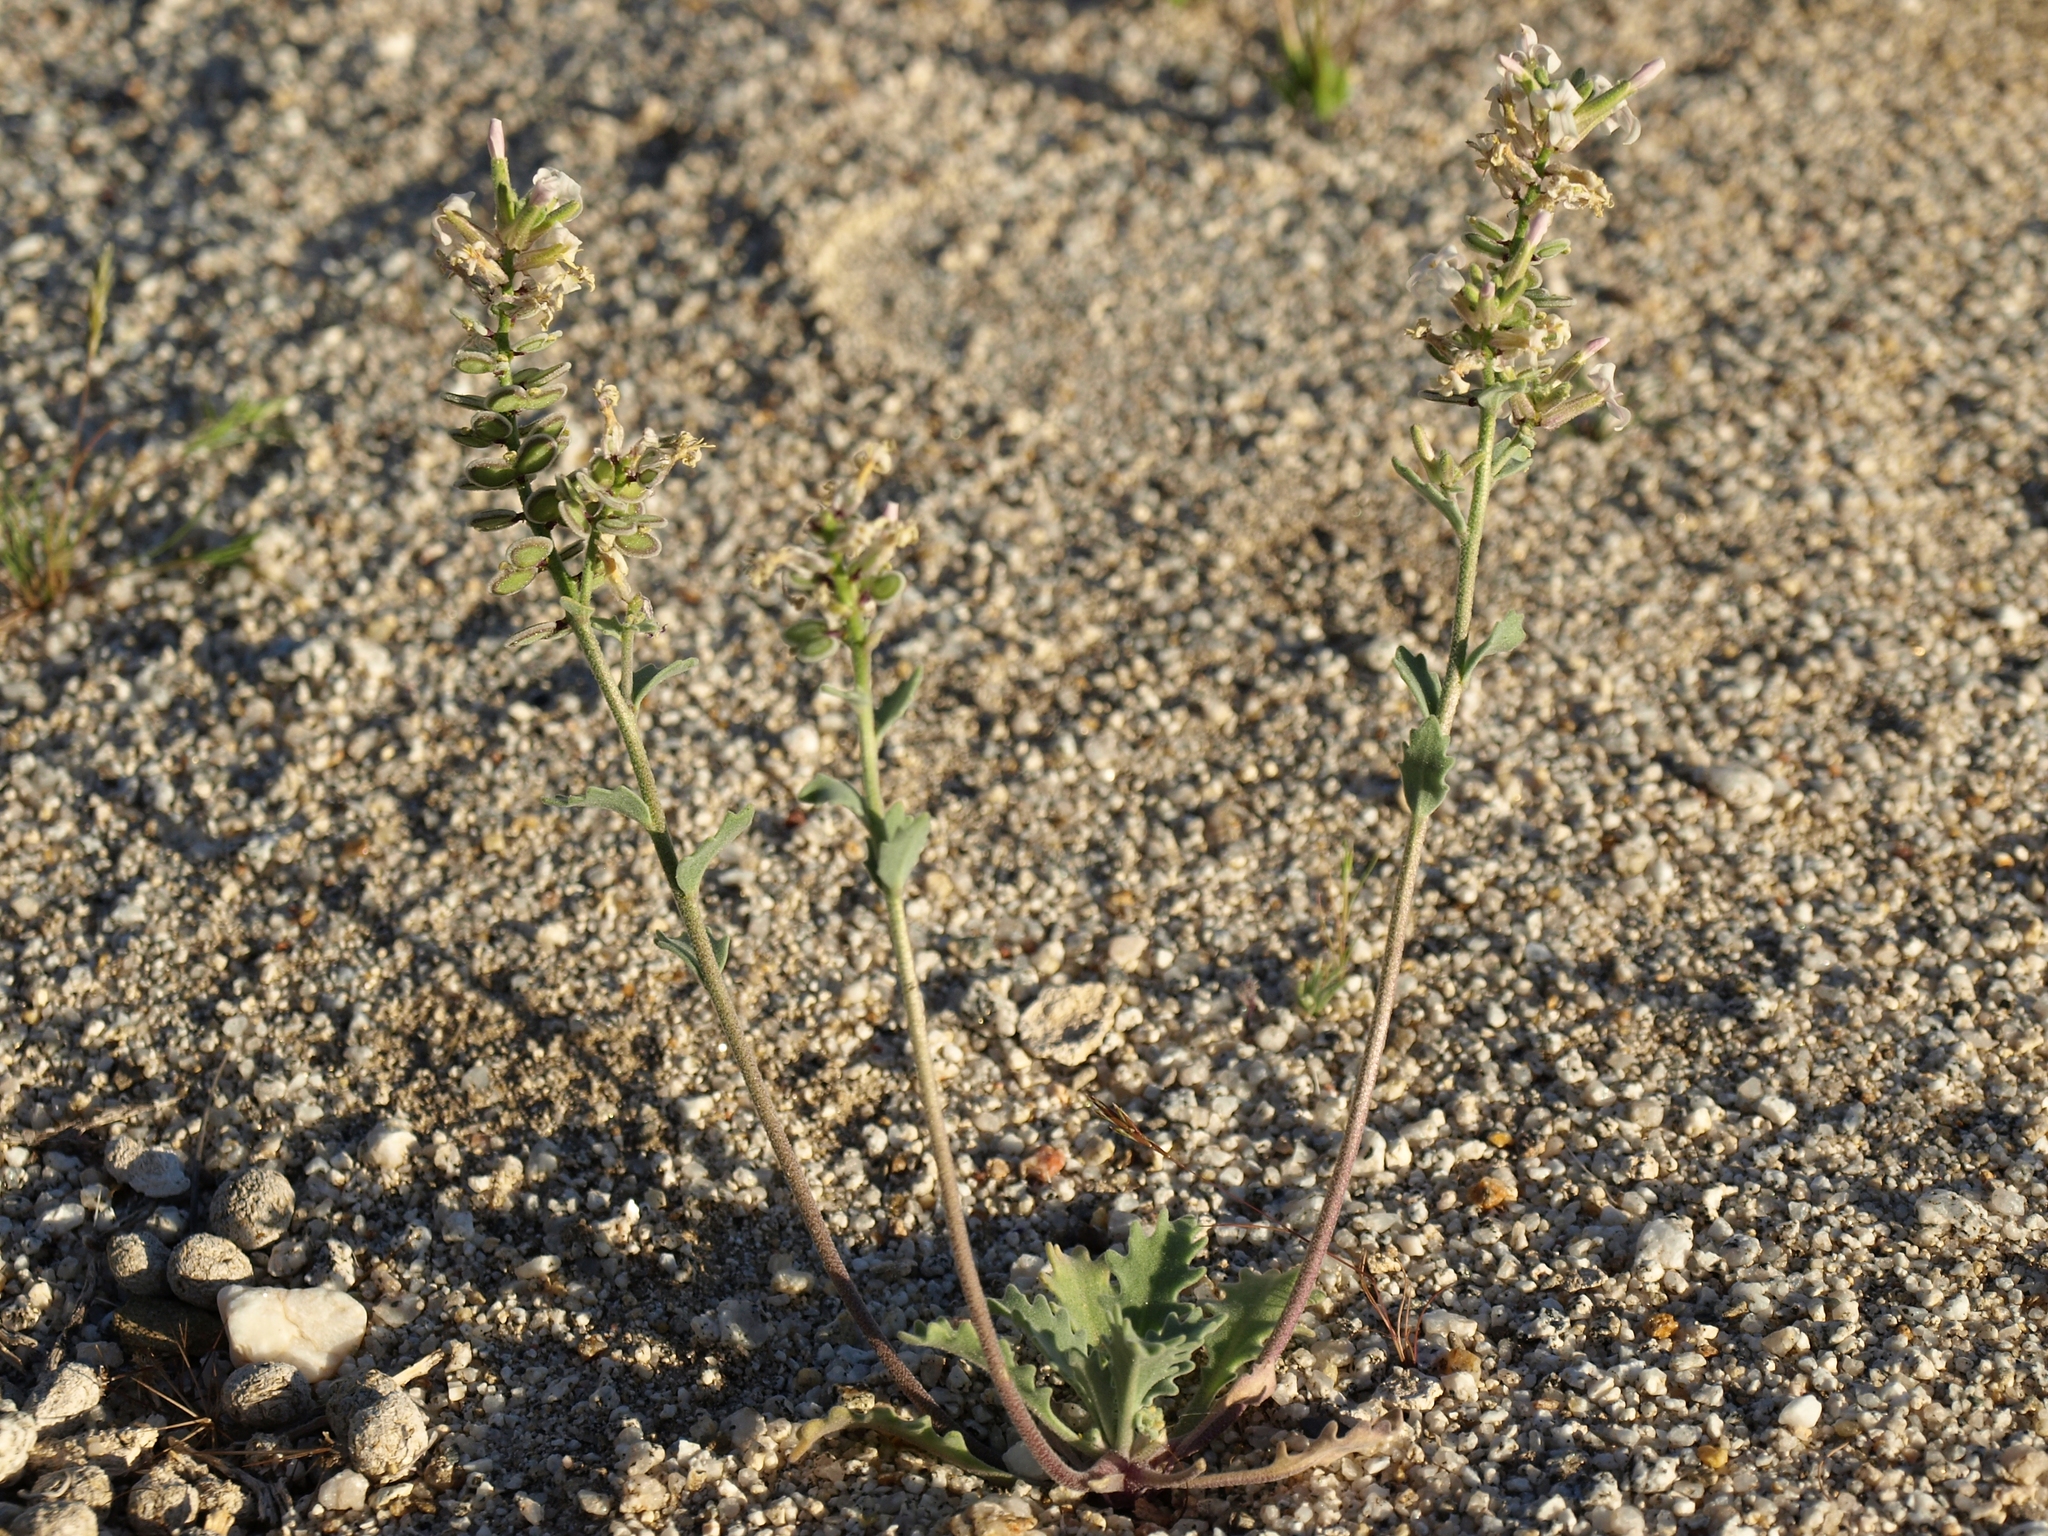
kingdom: Plantae
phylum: Tracheophyta
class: Magnoliopsida
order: Brassicales
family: Brassicaceae
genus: Dithyrea
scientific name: Dithyrea californica
